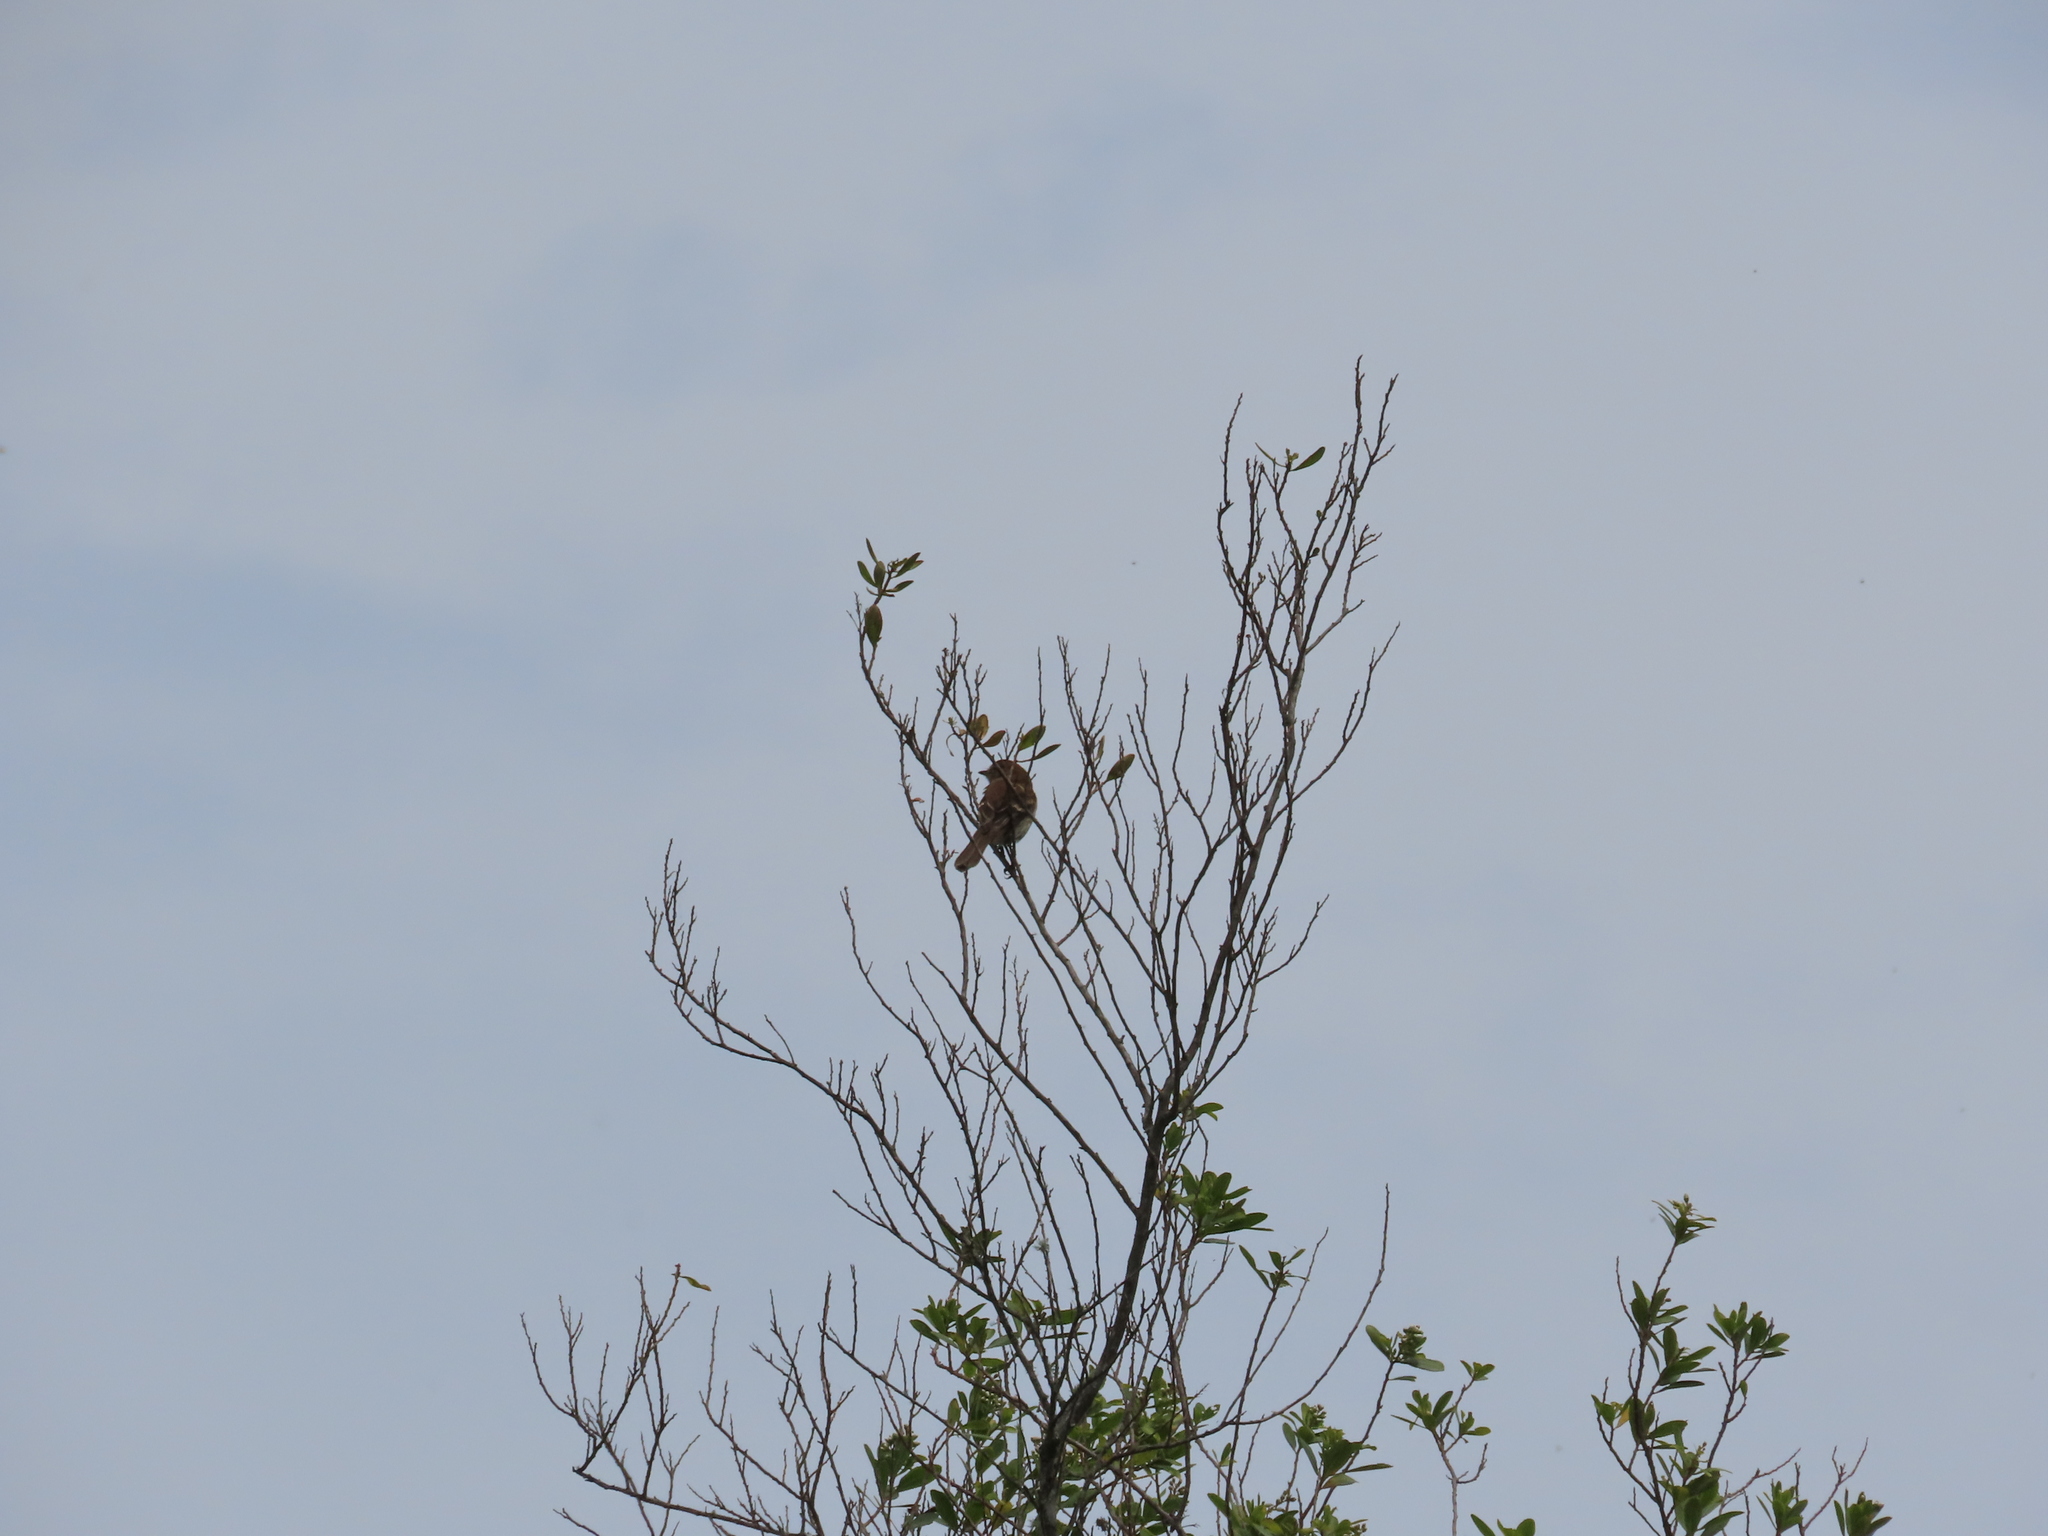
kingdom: Animalia
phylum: Chordata
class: Aves
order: Passeriformes
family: Tyrannidae
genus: Myiophobus
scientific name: Myiophobus fasciatus
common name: Bran-colored flycatcher
